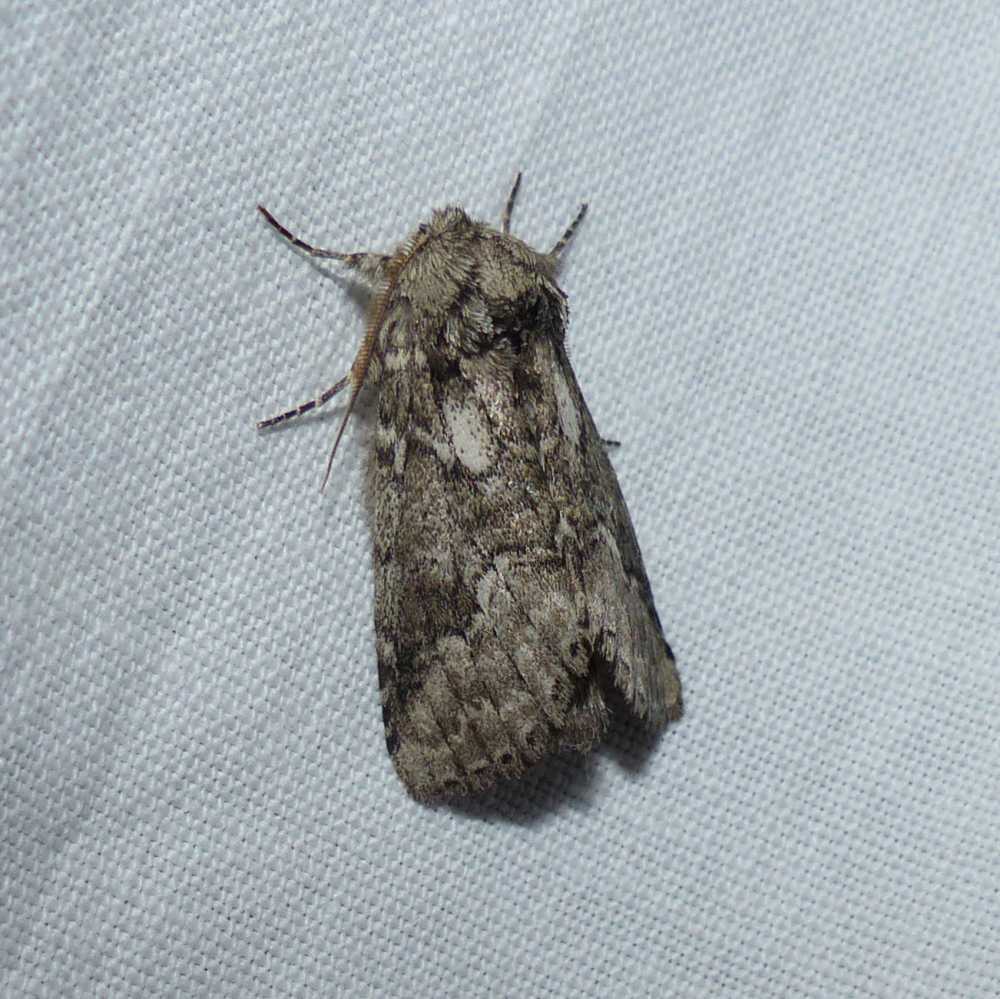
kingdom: Animalia
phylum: Arthropoda
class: Insecta
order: Lepidoptera
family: Notodontidae
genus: Lochmaeus
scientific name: Lochmaeus bilineata
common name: Double-lined prominent
